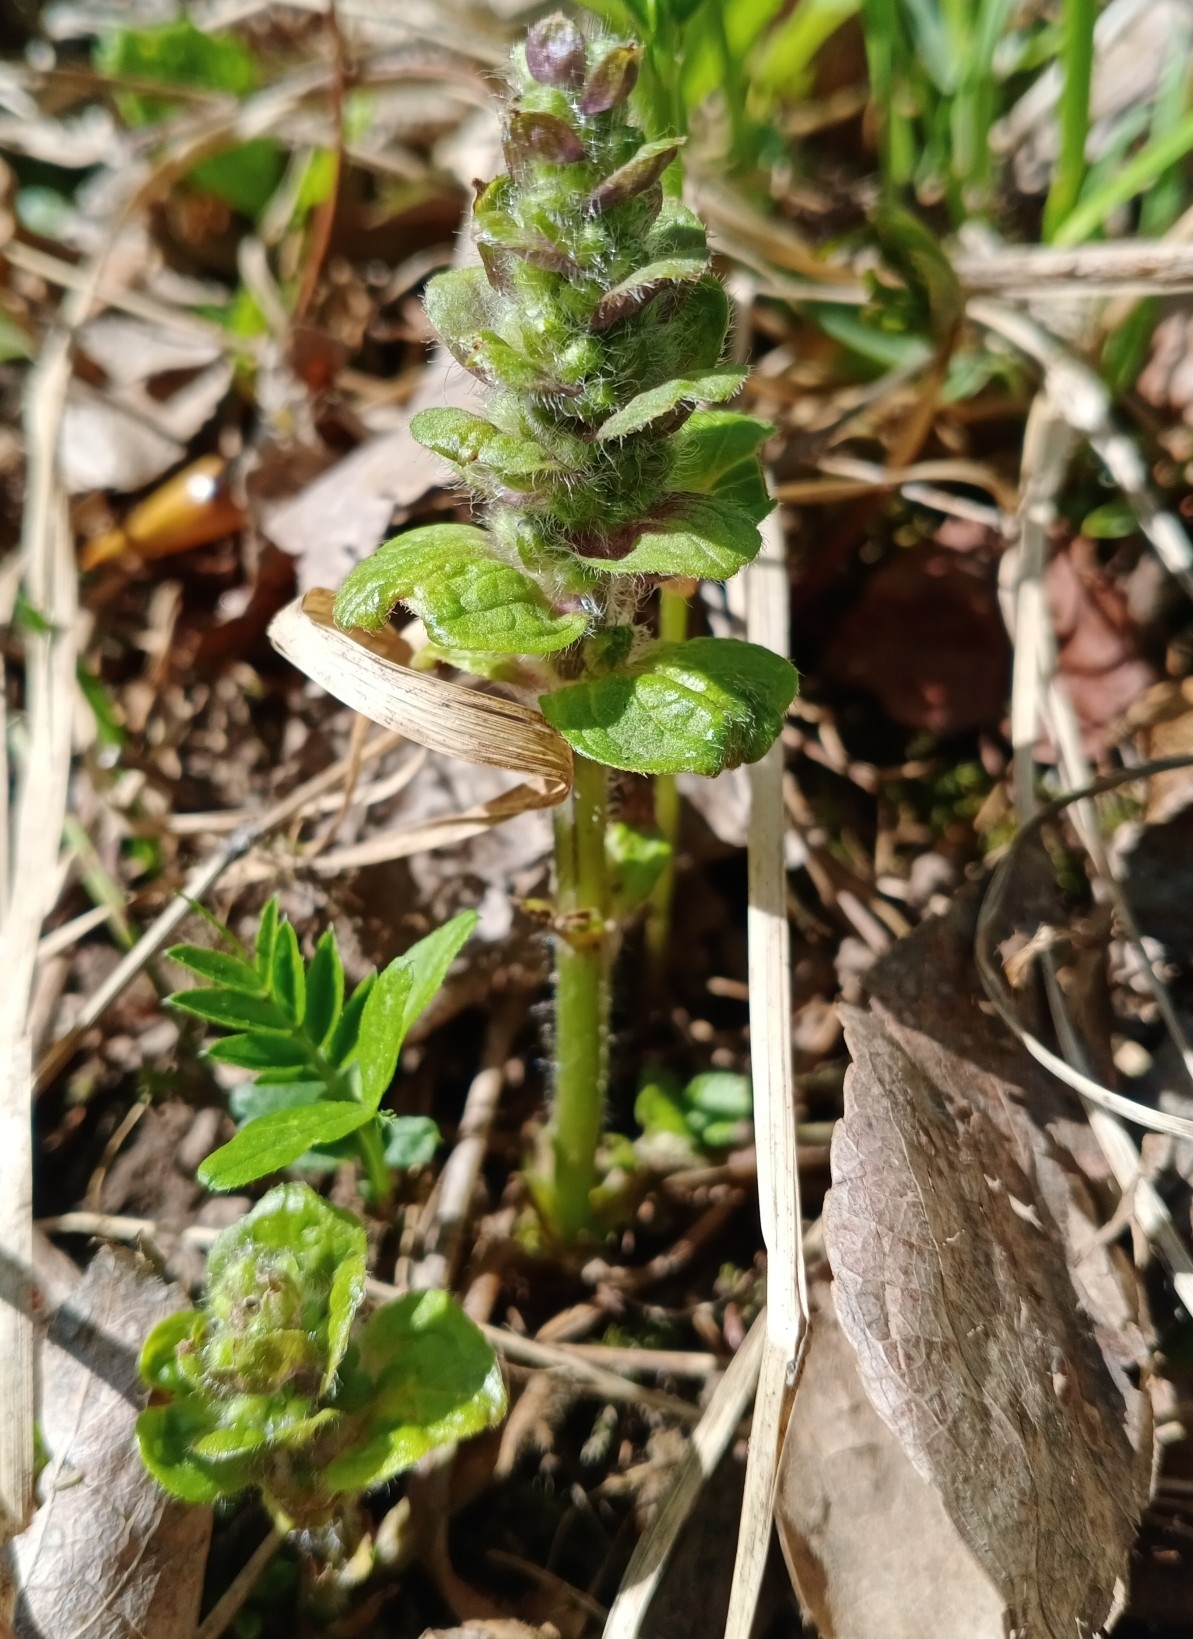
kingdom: Plantae
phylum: Tracheophyta
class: Magnoliopsida
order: Lamiales
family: Lamiaceae
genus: Ajuga
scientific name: Ajuga reptans
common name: Bugle
